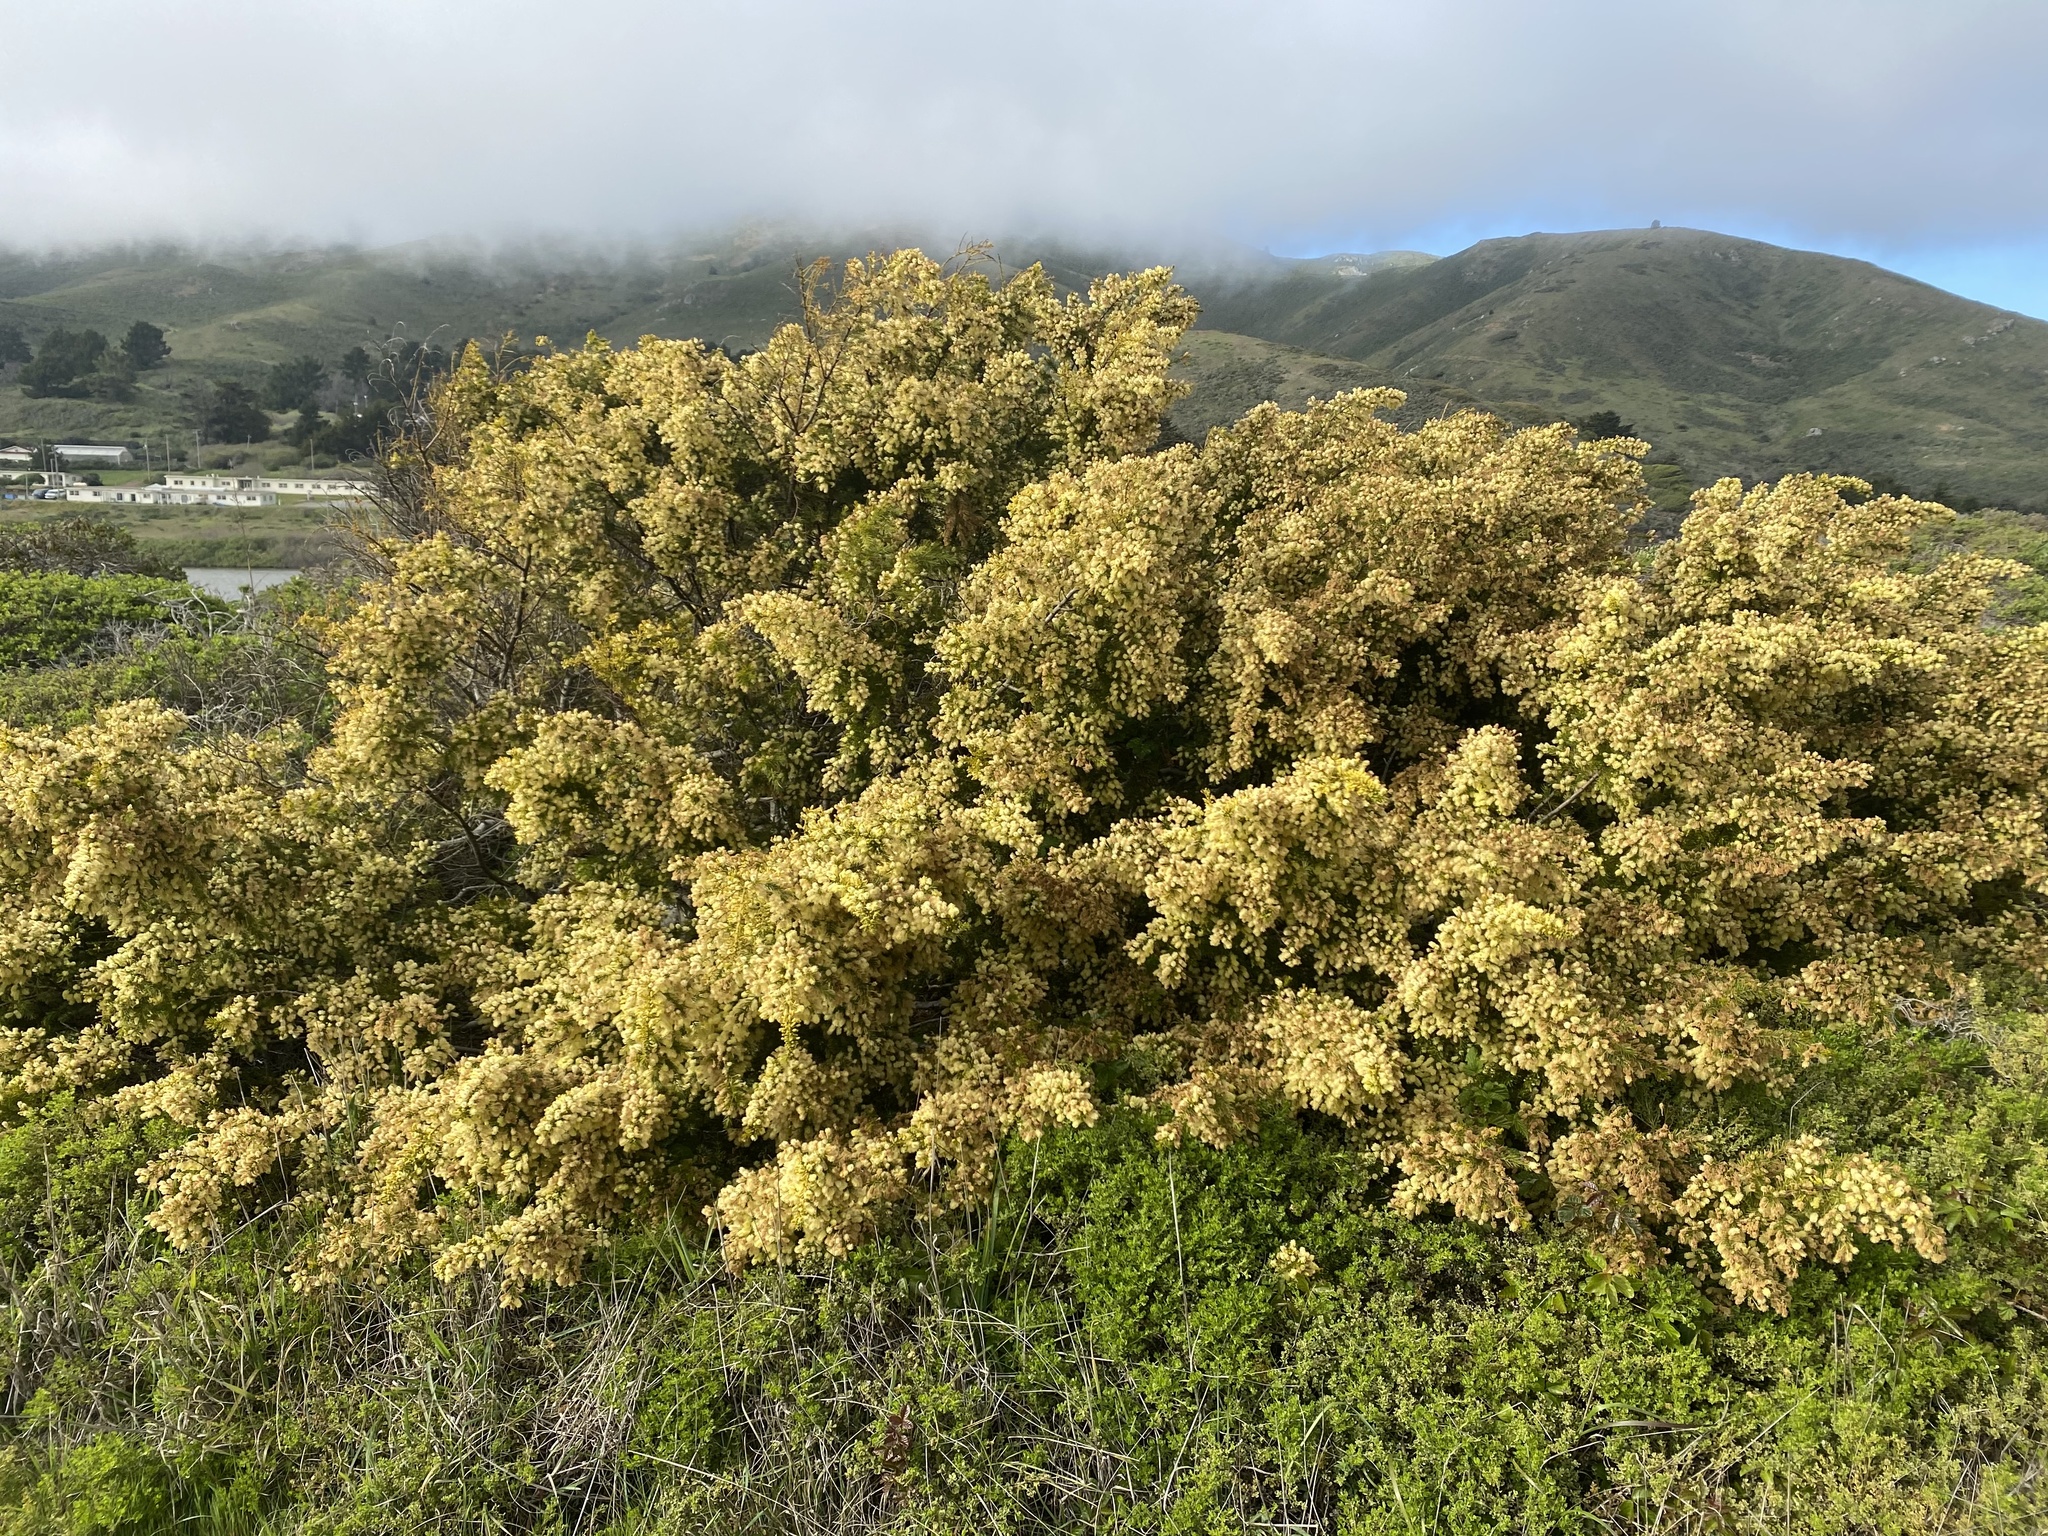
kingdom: Plantae
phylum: Tracheophyta
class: Magnoliopsida
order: Fabales
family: Fabaceae
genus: Acacia
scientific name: Acacia verticillata
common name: Prickly moses
